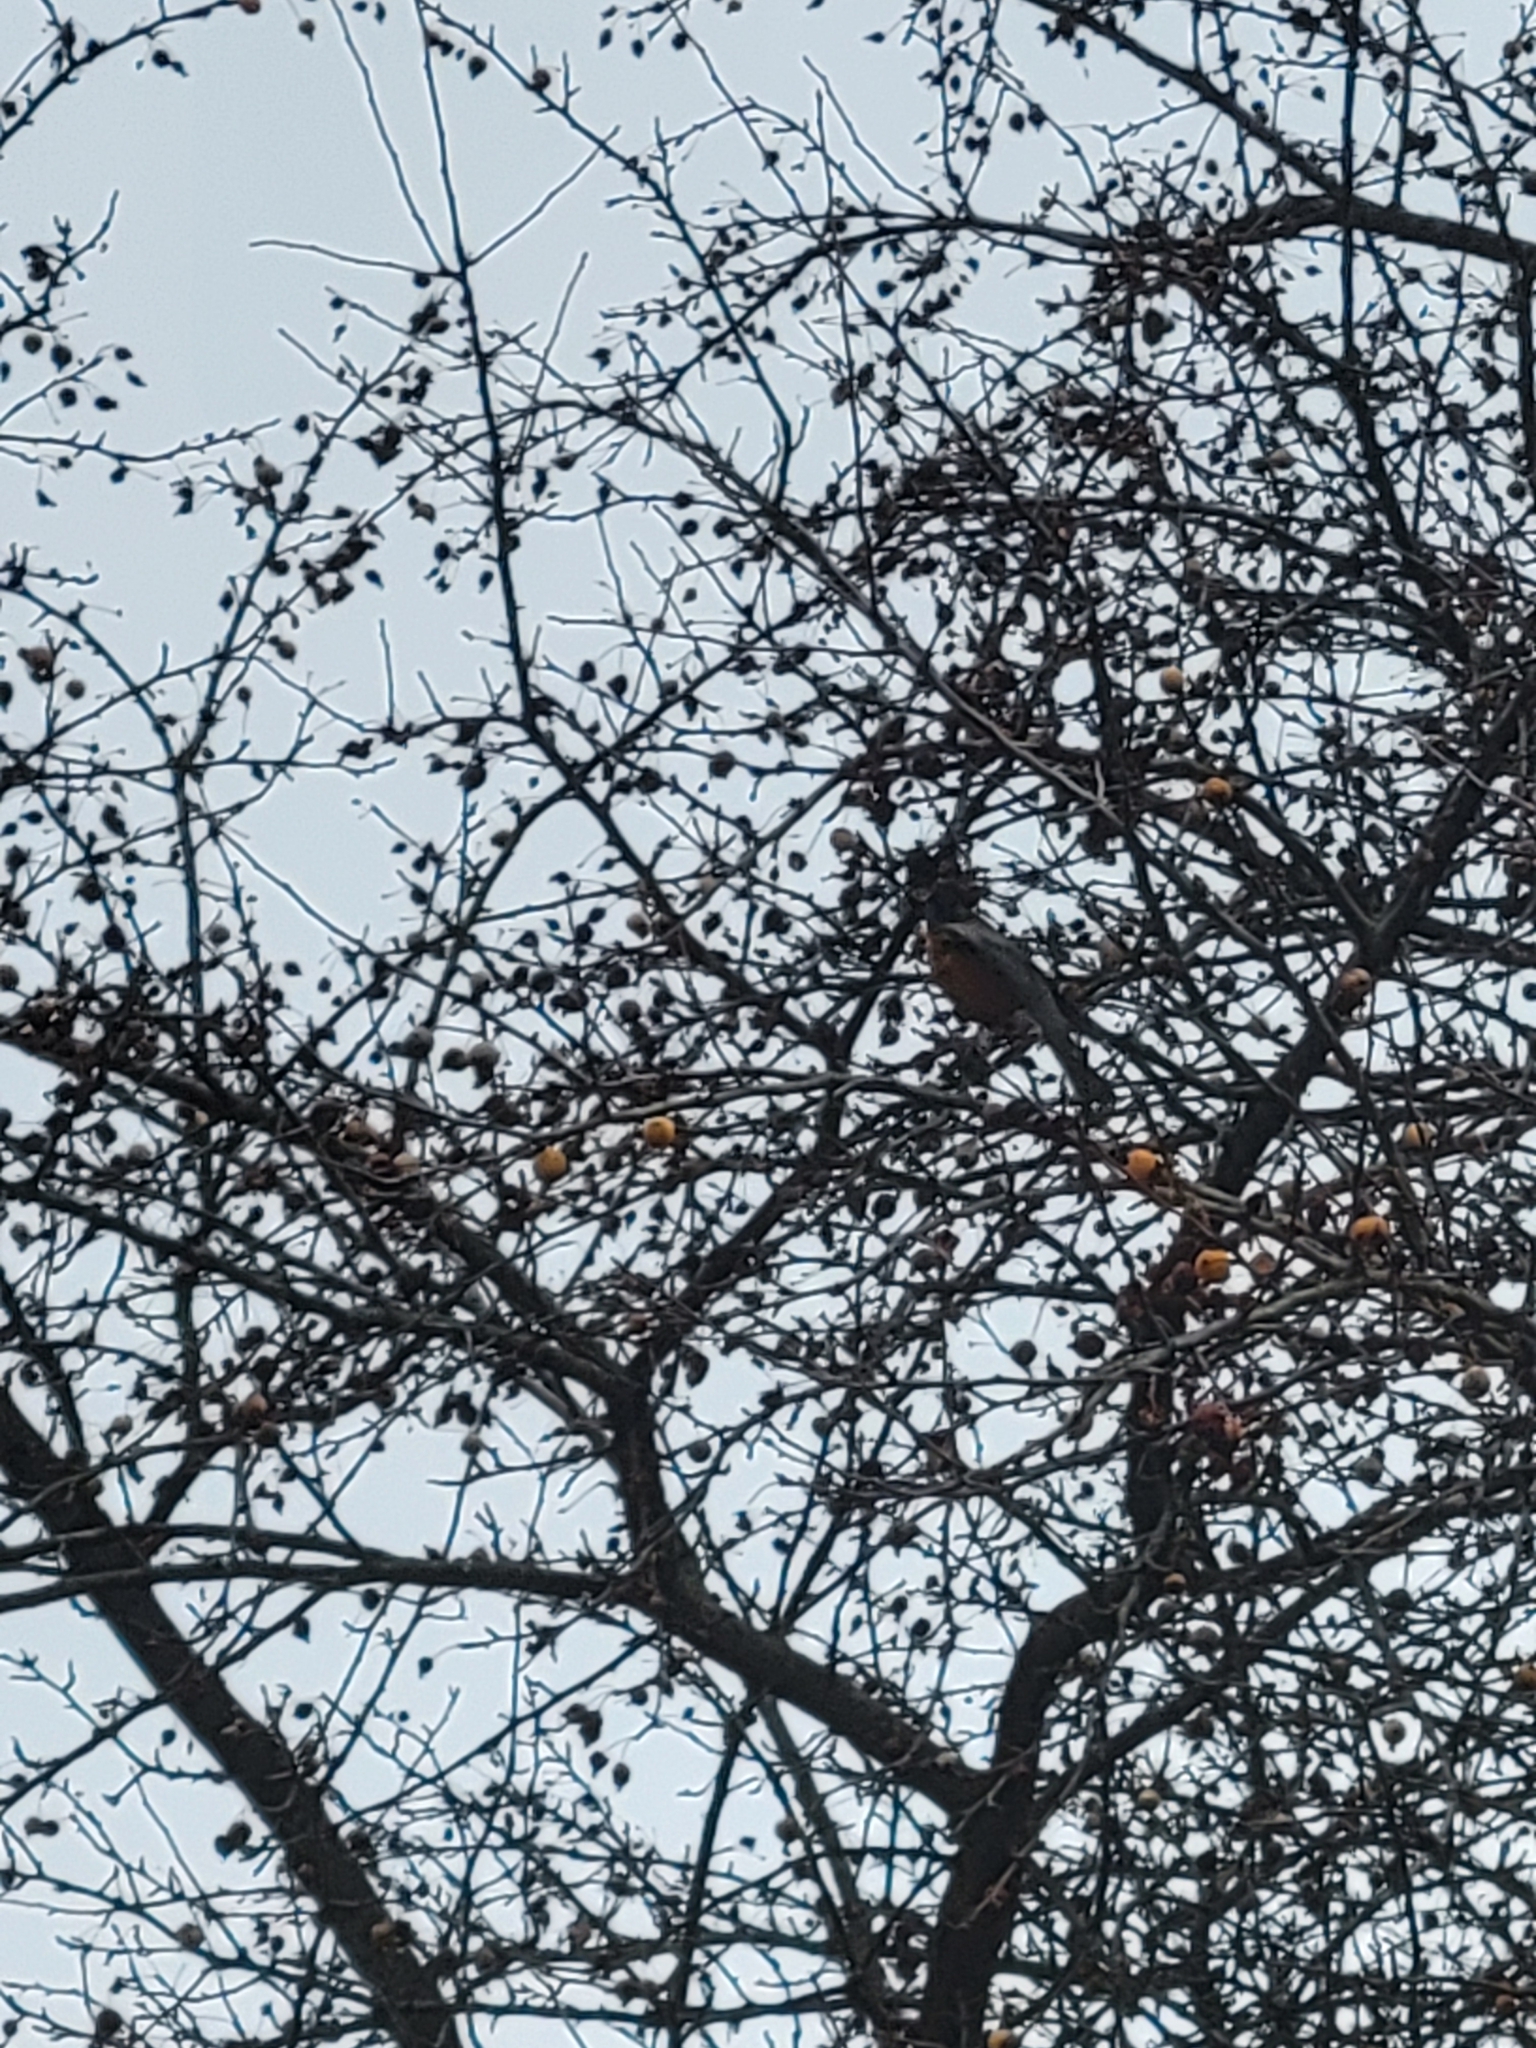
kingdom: Animalia
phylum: Chordata
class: Aves
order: Passeriformes
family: Turdidae
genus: Turdus
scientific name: Turdus migratorius
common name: American robin
